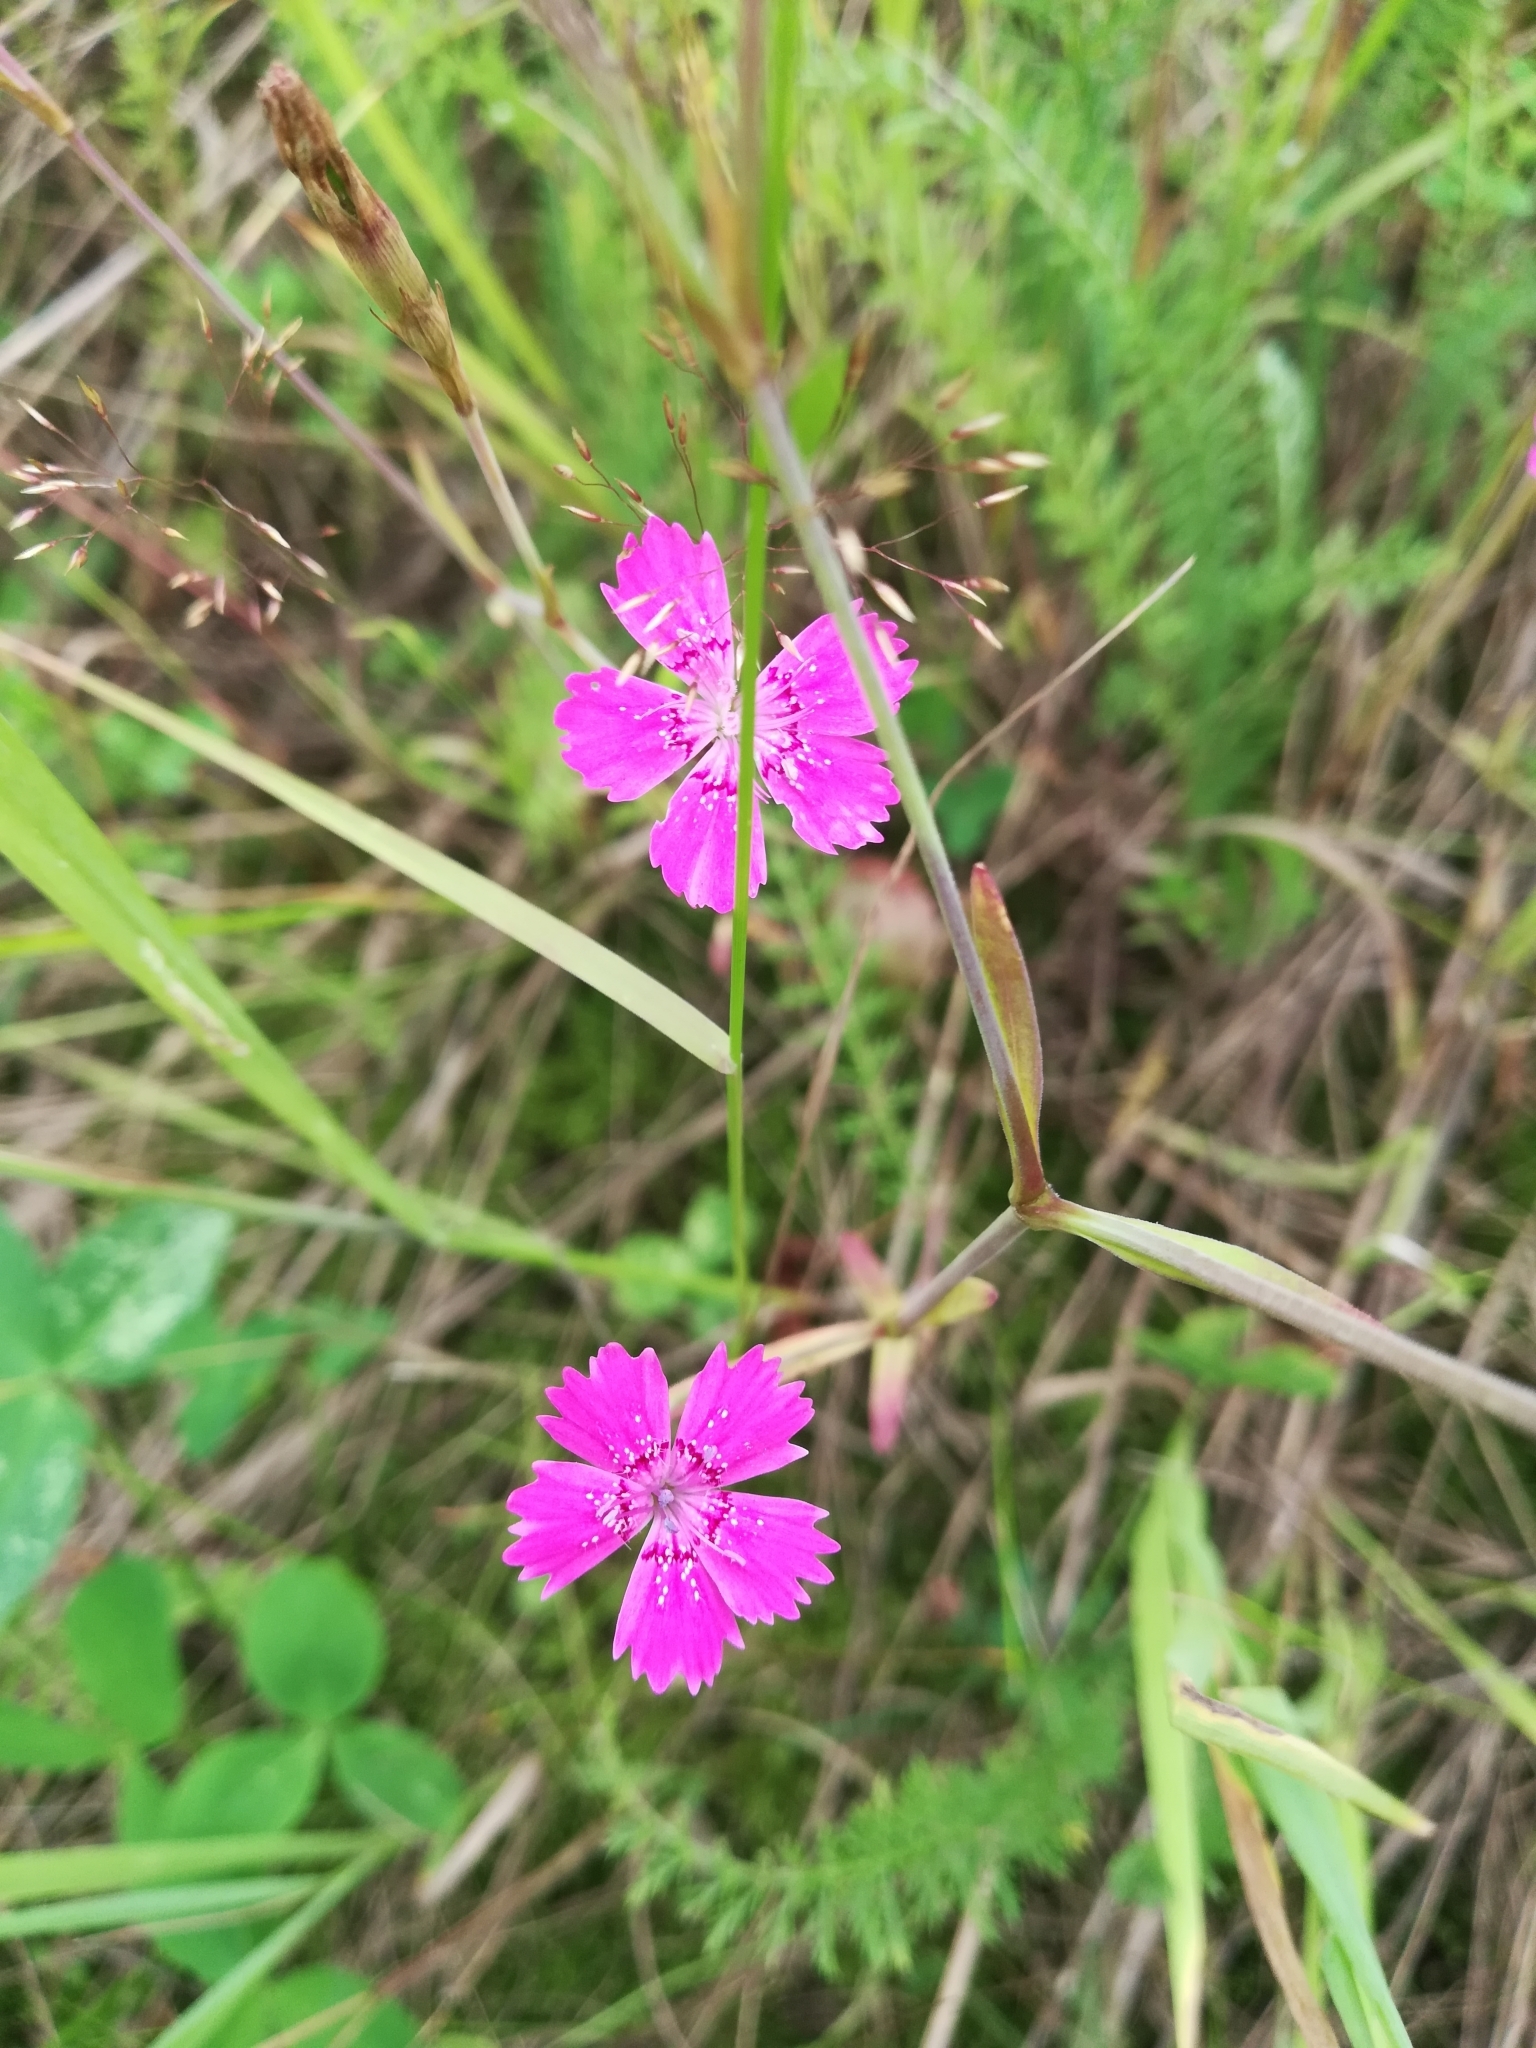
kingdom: Plantae
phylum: Tracheophyta
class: Magnoliopsida
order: Caryophyllales
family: Caryophyllaceae
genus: Dianthus
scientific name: Dianthus deltoides
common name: Maiden pink
